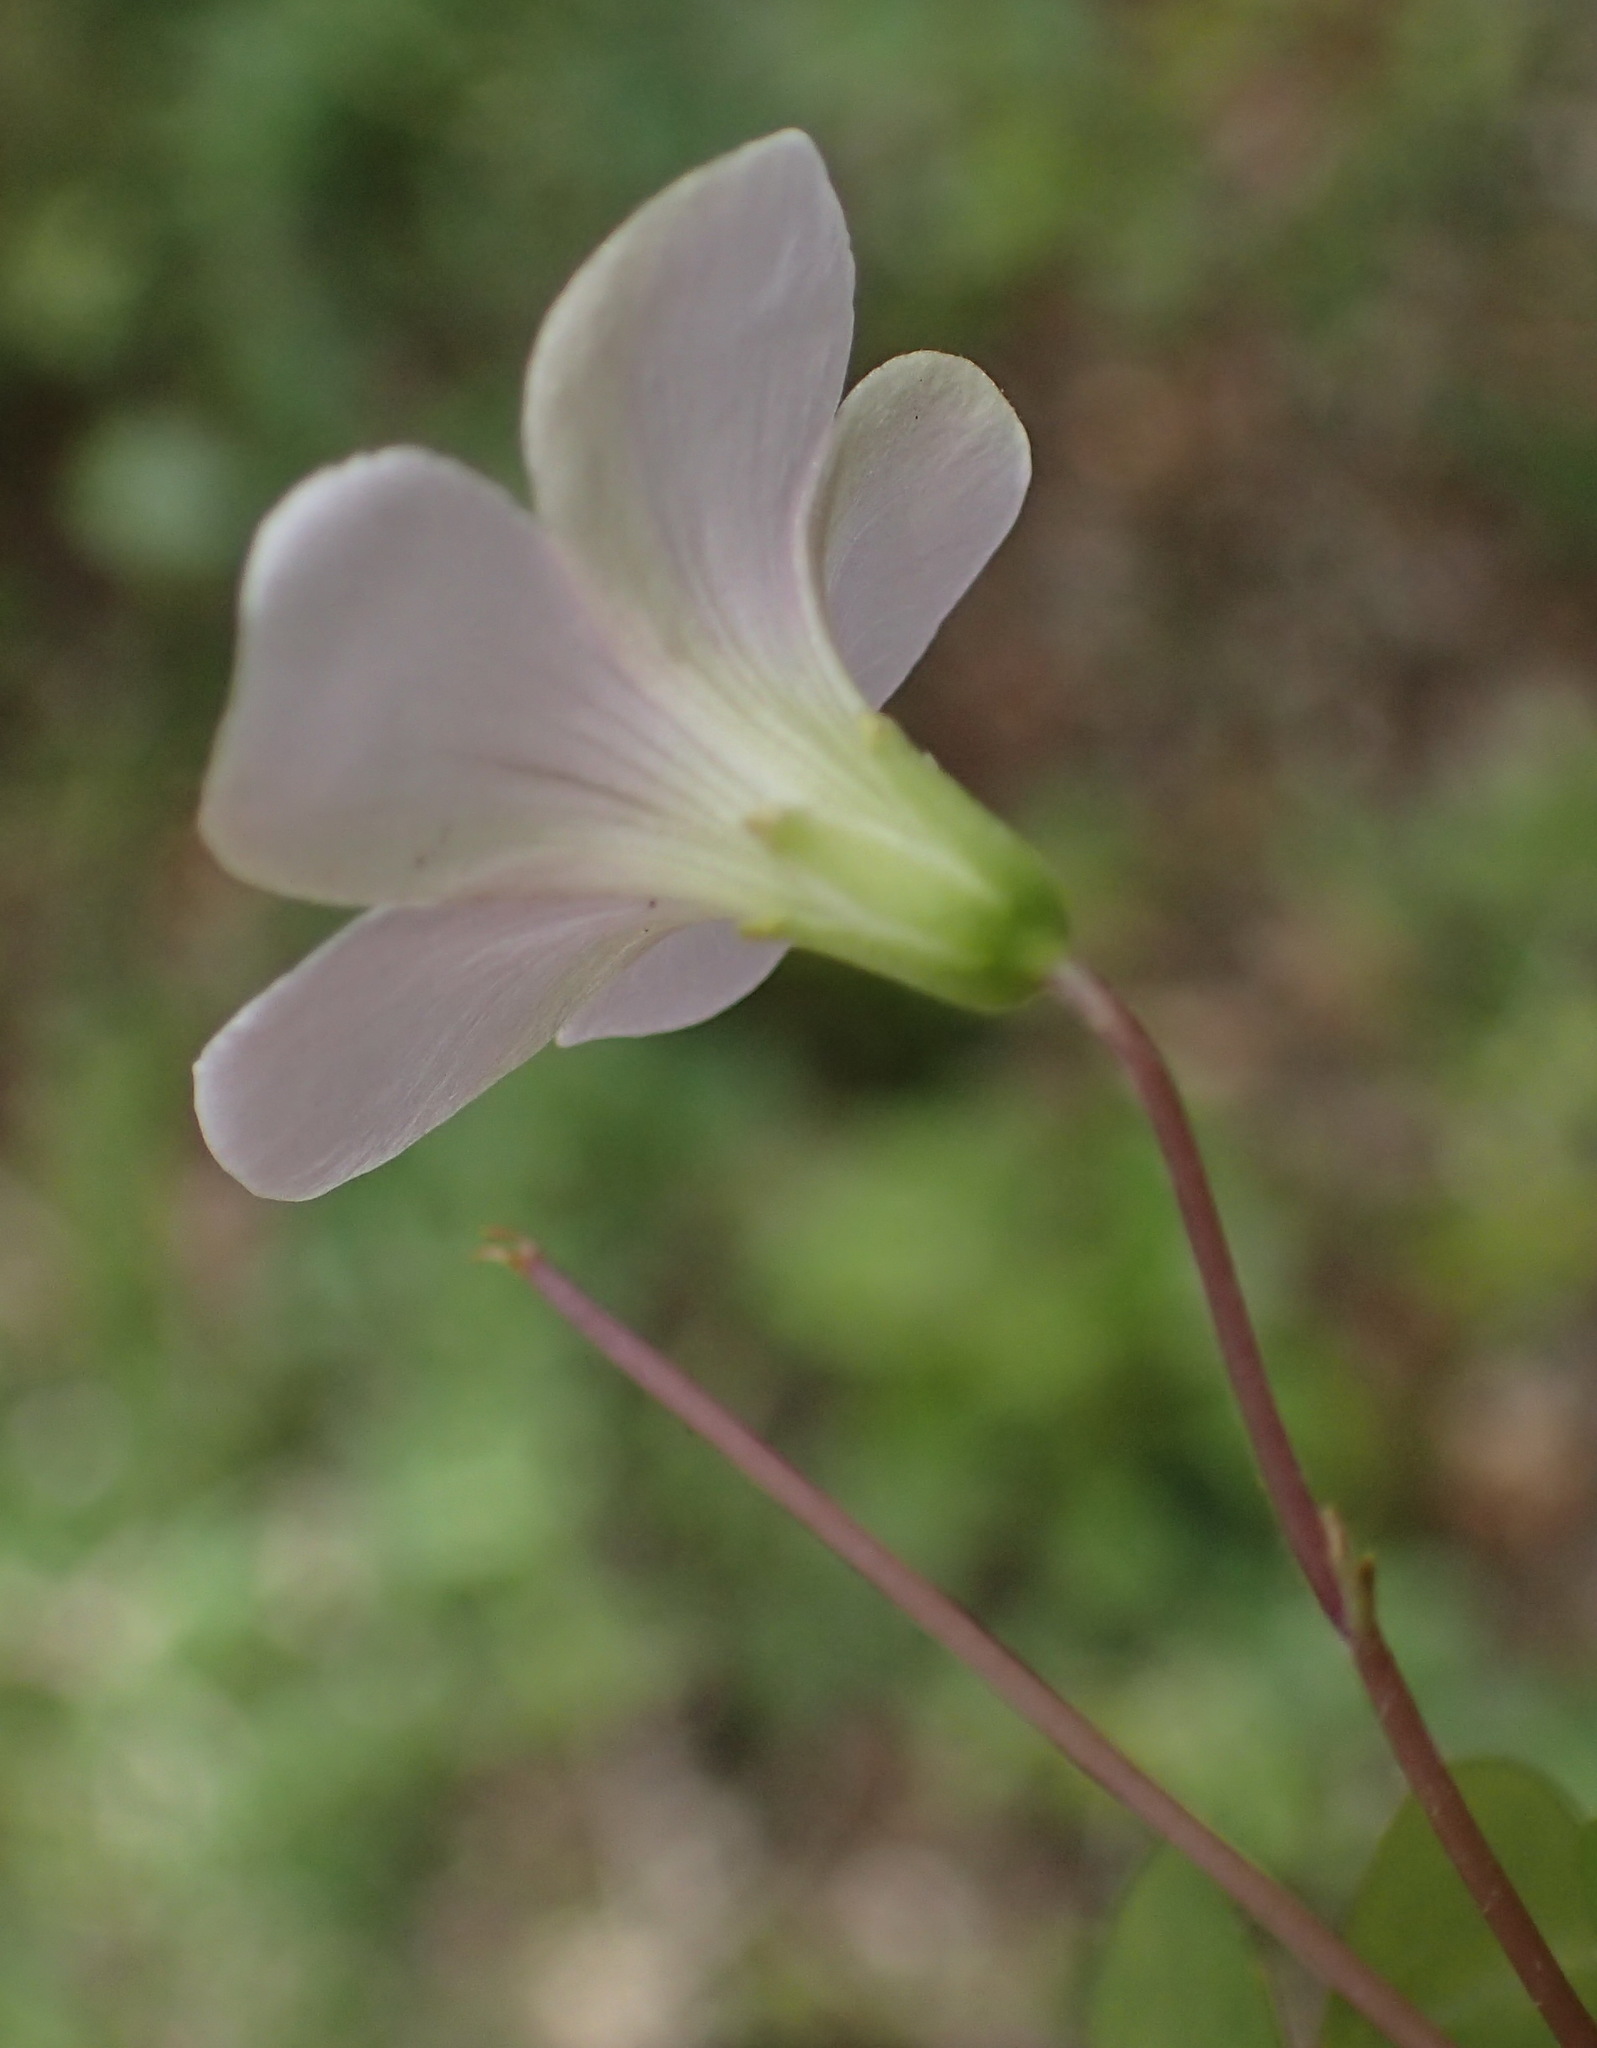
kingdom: Plantae
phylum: Tracheophyta
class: Magnoliopsida
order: Oxalidales
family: Oxalidaceae
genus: Oxalis
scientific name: Oxalis incarnata
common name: Pale pink-sorrel
